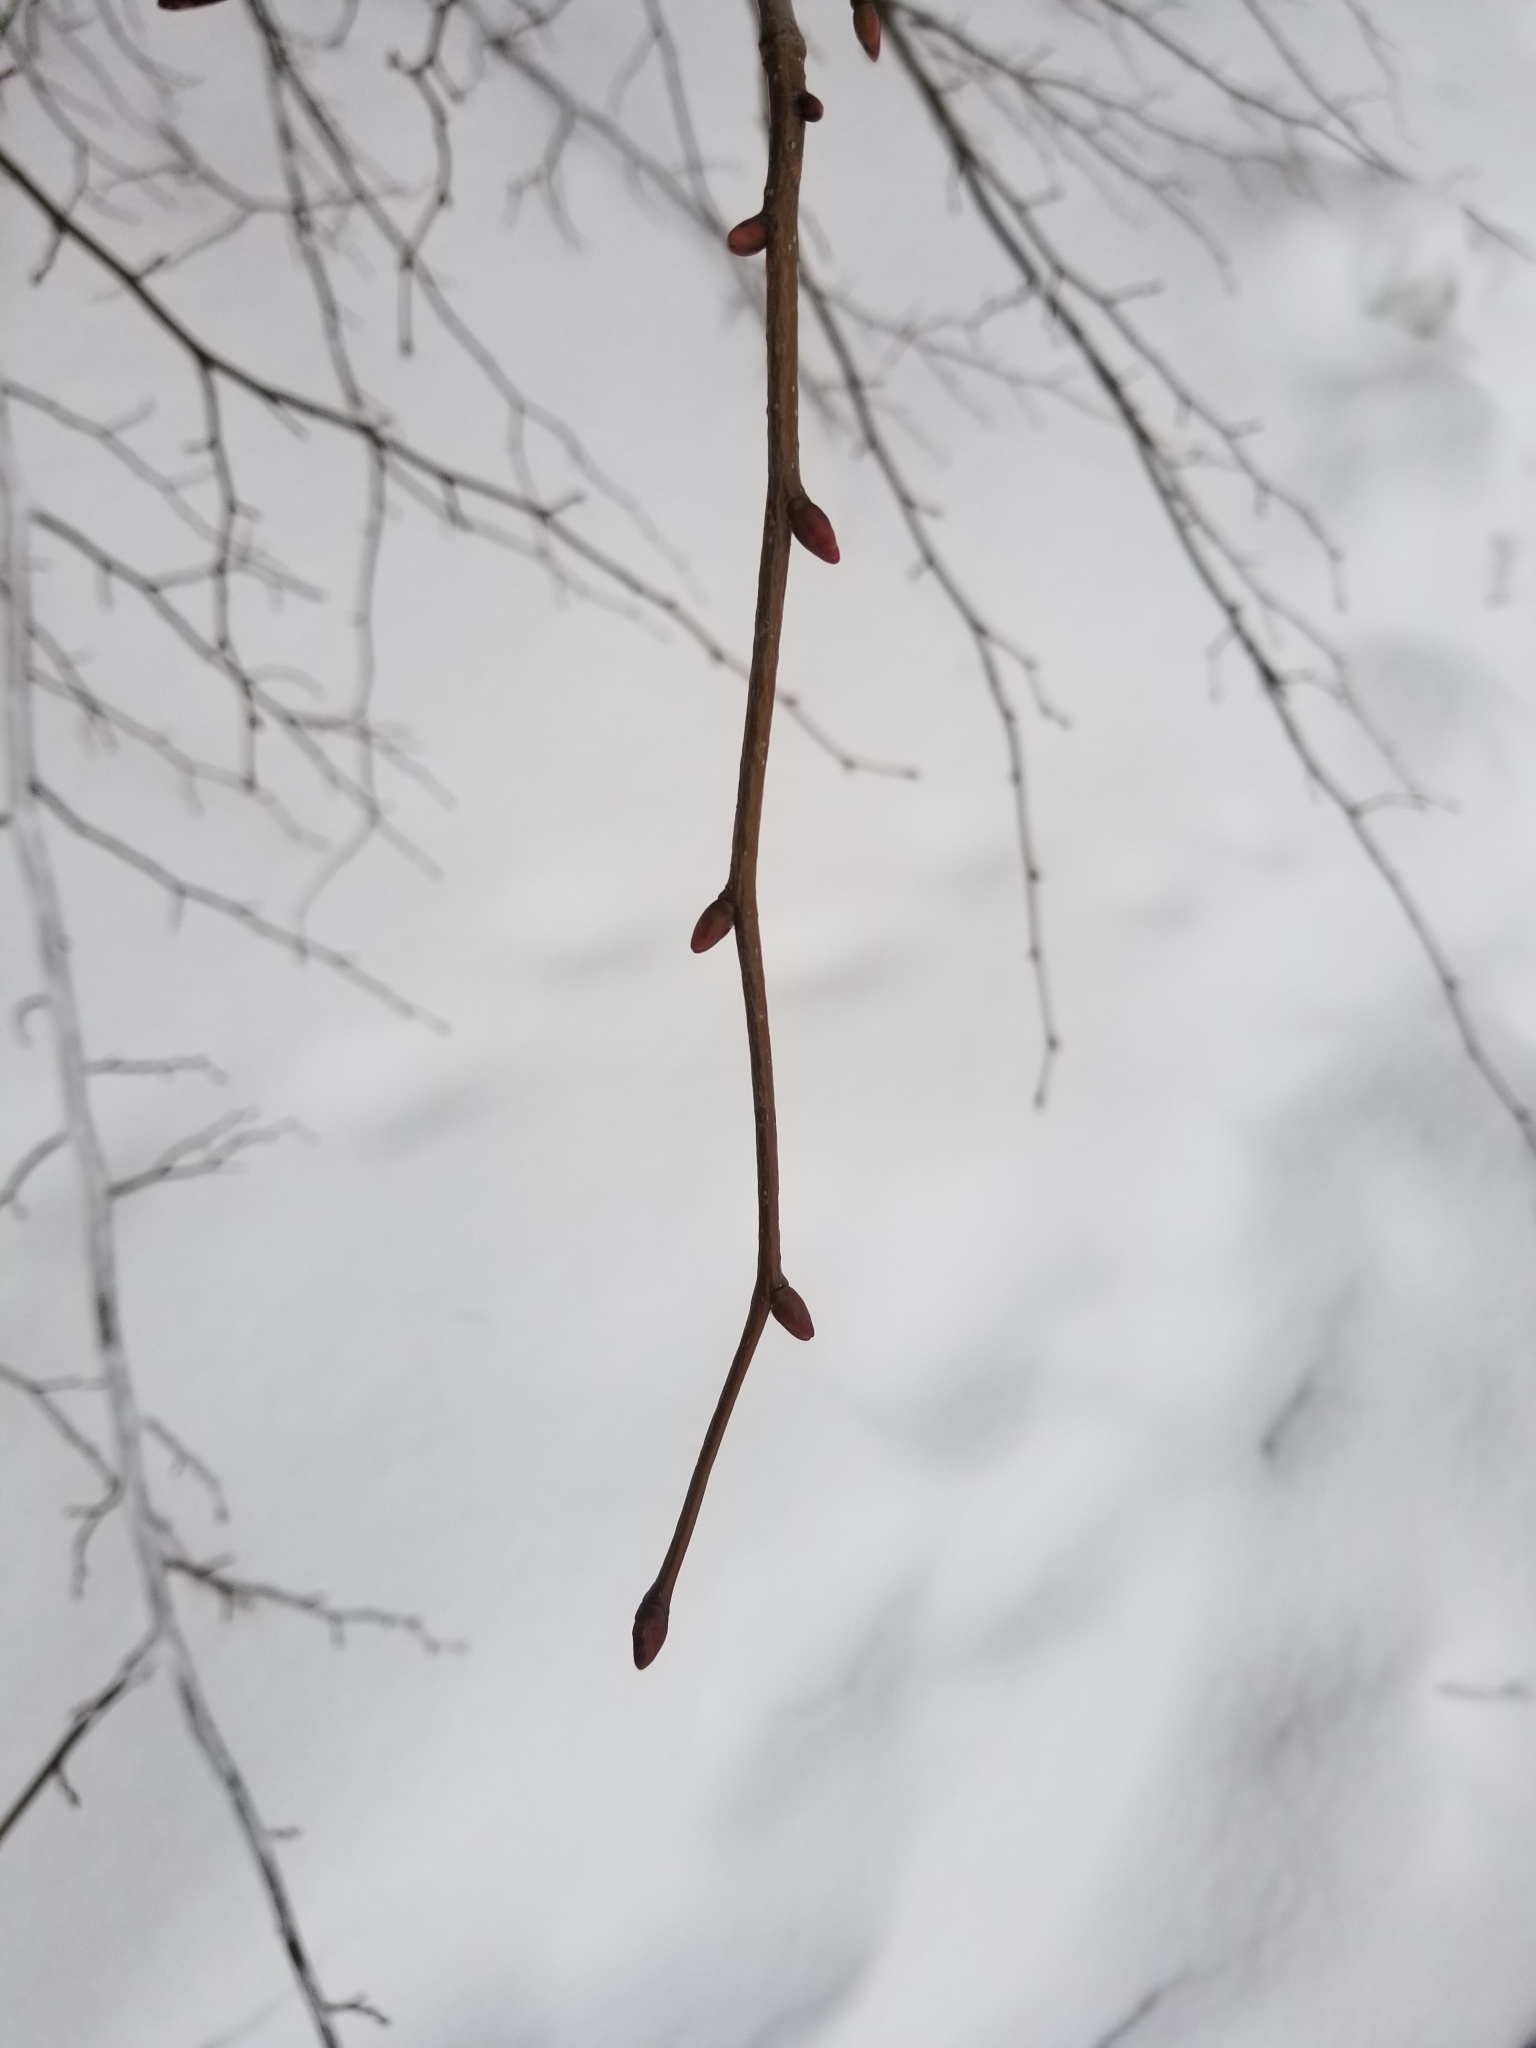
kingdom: Plantae
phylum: Tracheophyta
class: Magnoliopsida
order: Malvales
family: Malvaceae
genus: Tilia
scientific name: Tilia americana
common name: Basswood
